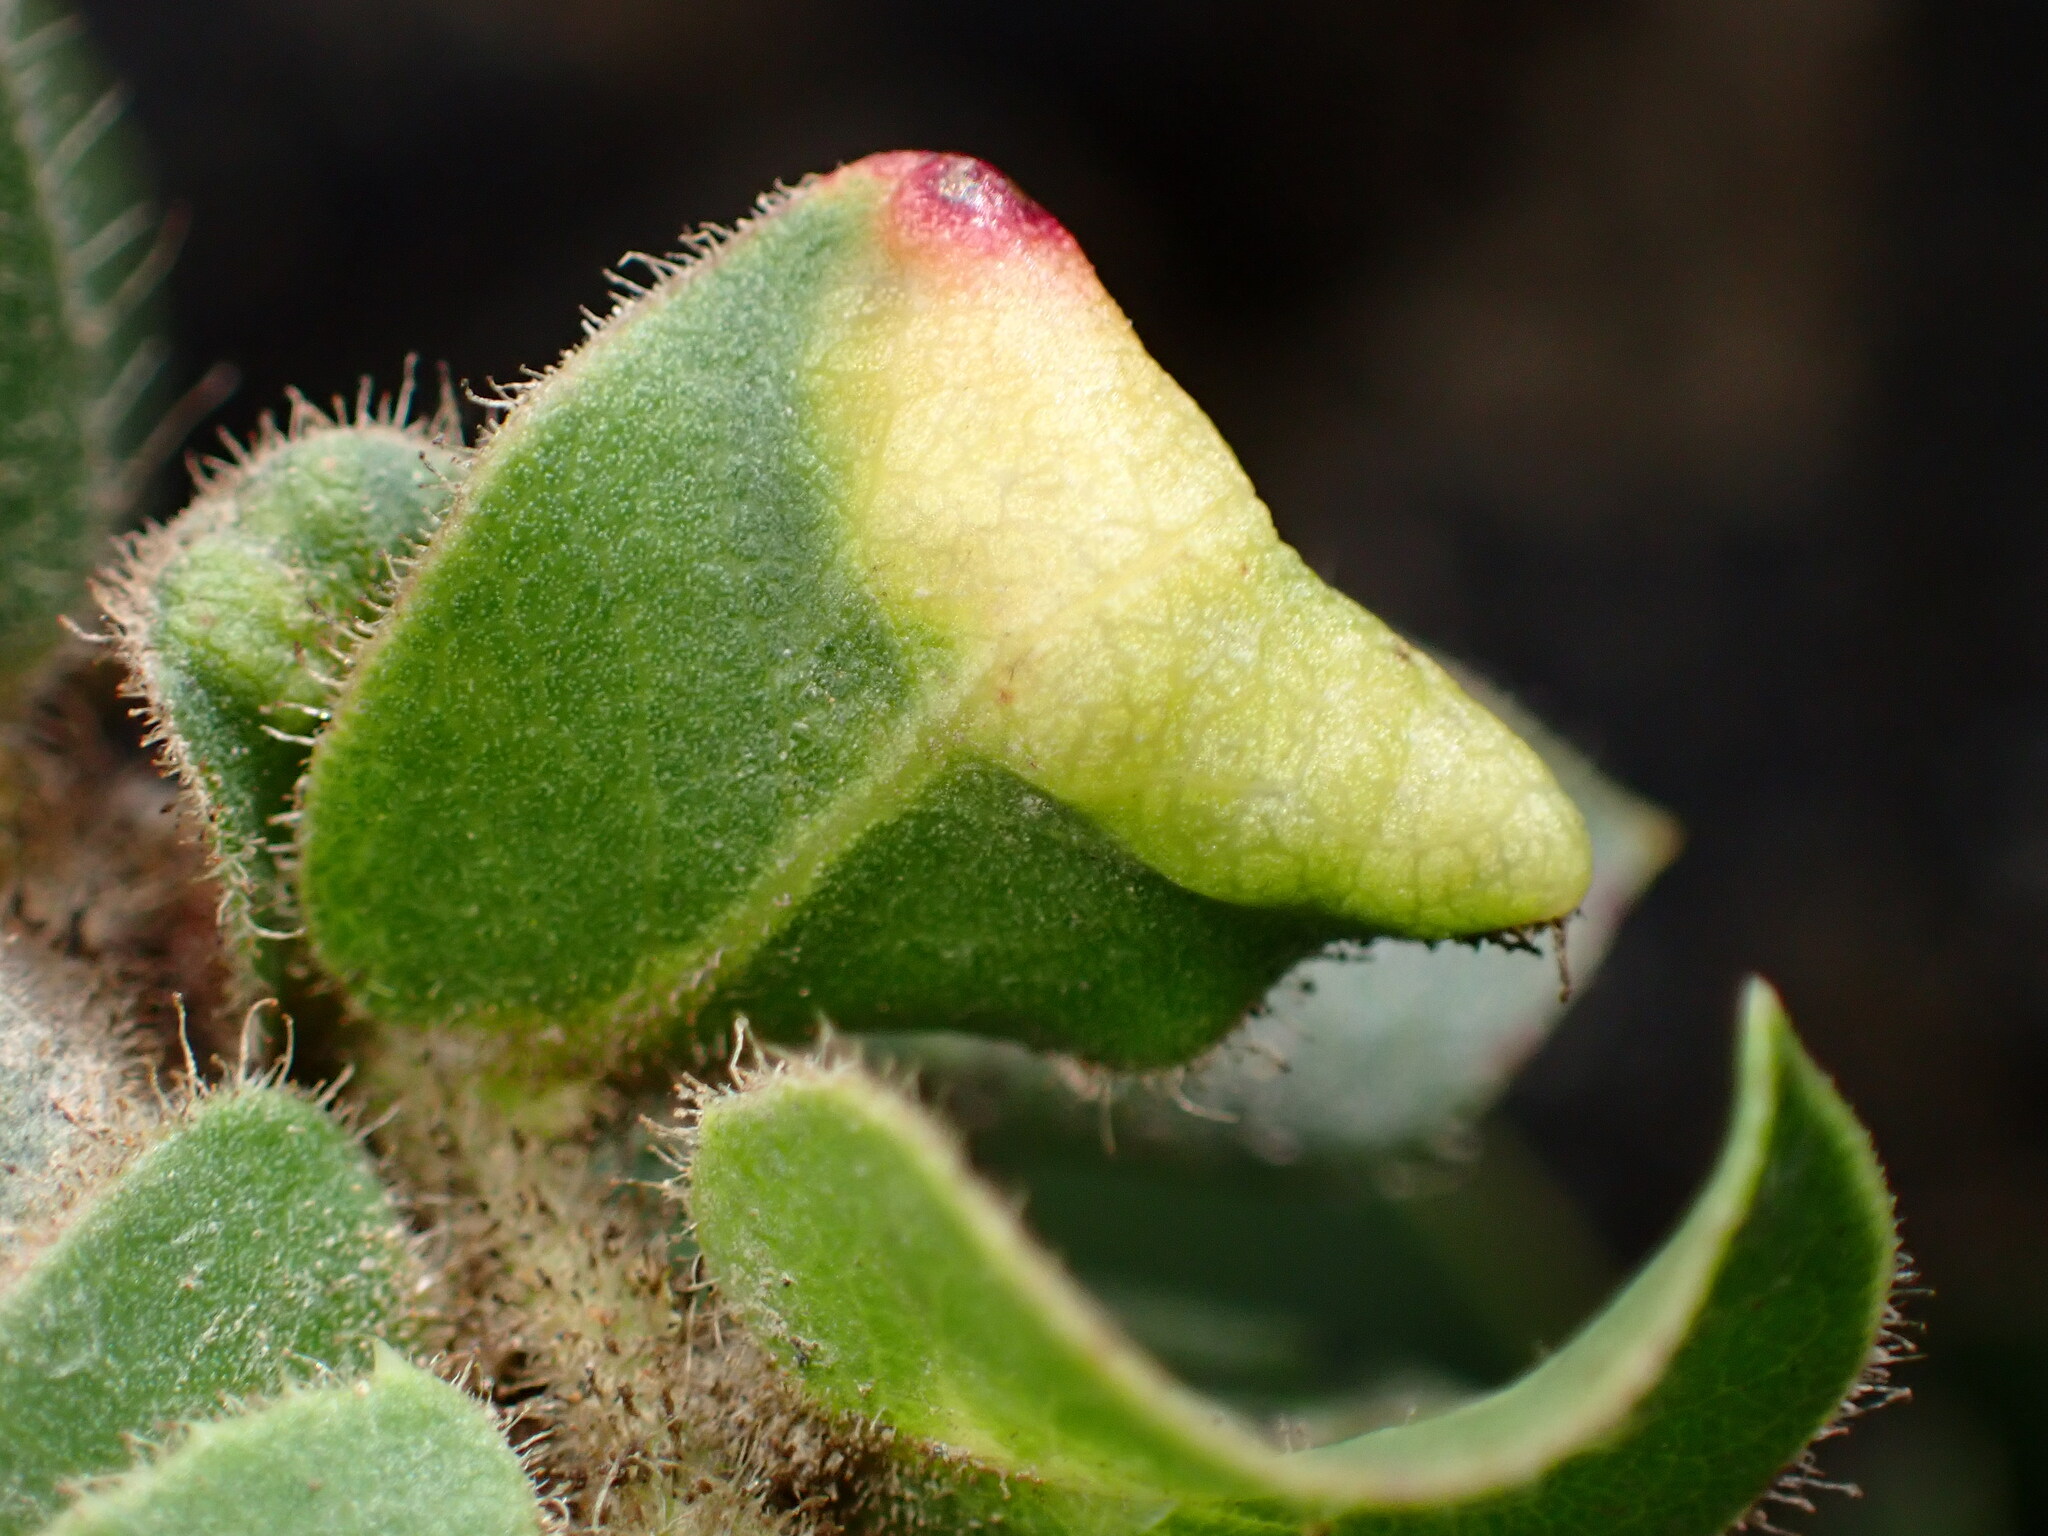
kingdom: Animalia
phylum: Arthropoda
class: Insecta
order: Hemiptera
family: Aphididae
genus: Tamalia
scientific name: Tamalia coweni
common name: Manzanita leafgall aphid
